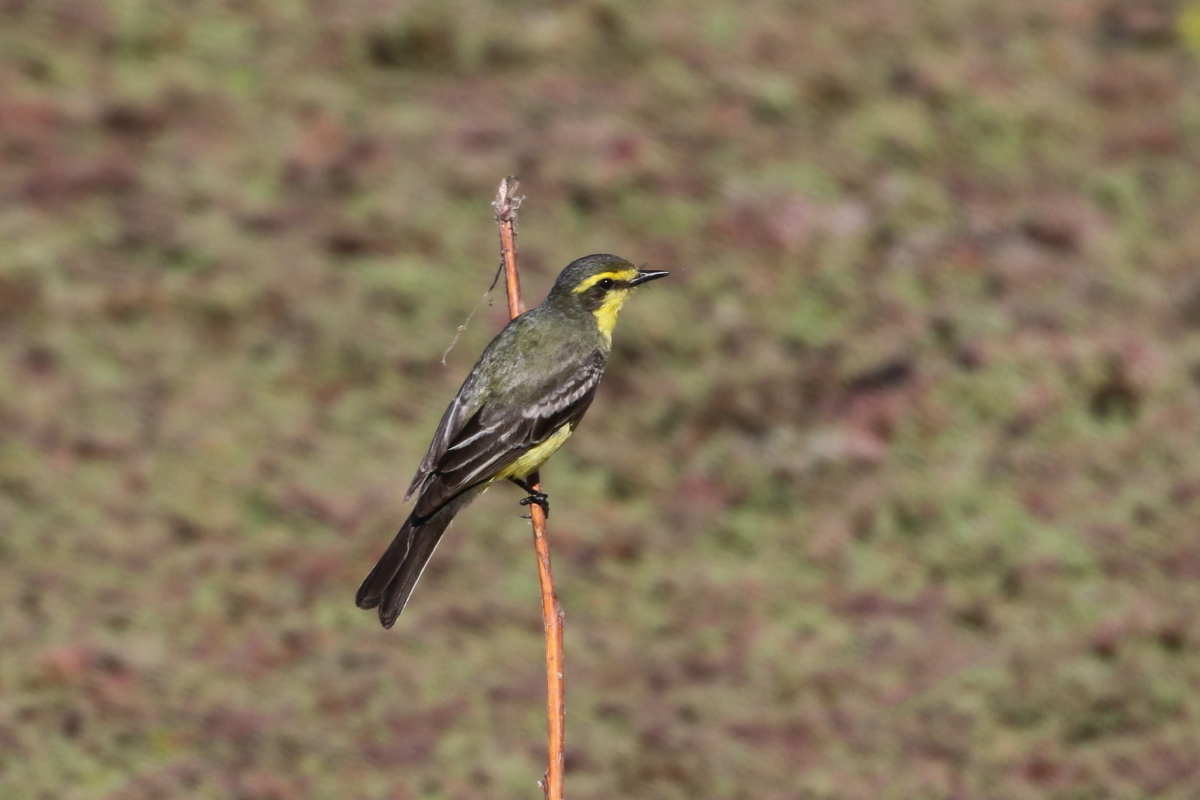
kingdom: Animalia
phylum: Chordata
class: Aves
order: Passeriformes
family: Tyrannidae
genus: Satrapa
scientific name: Satrapa icterophrys
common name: Yellow-browed tyrant
